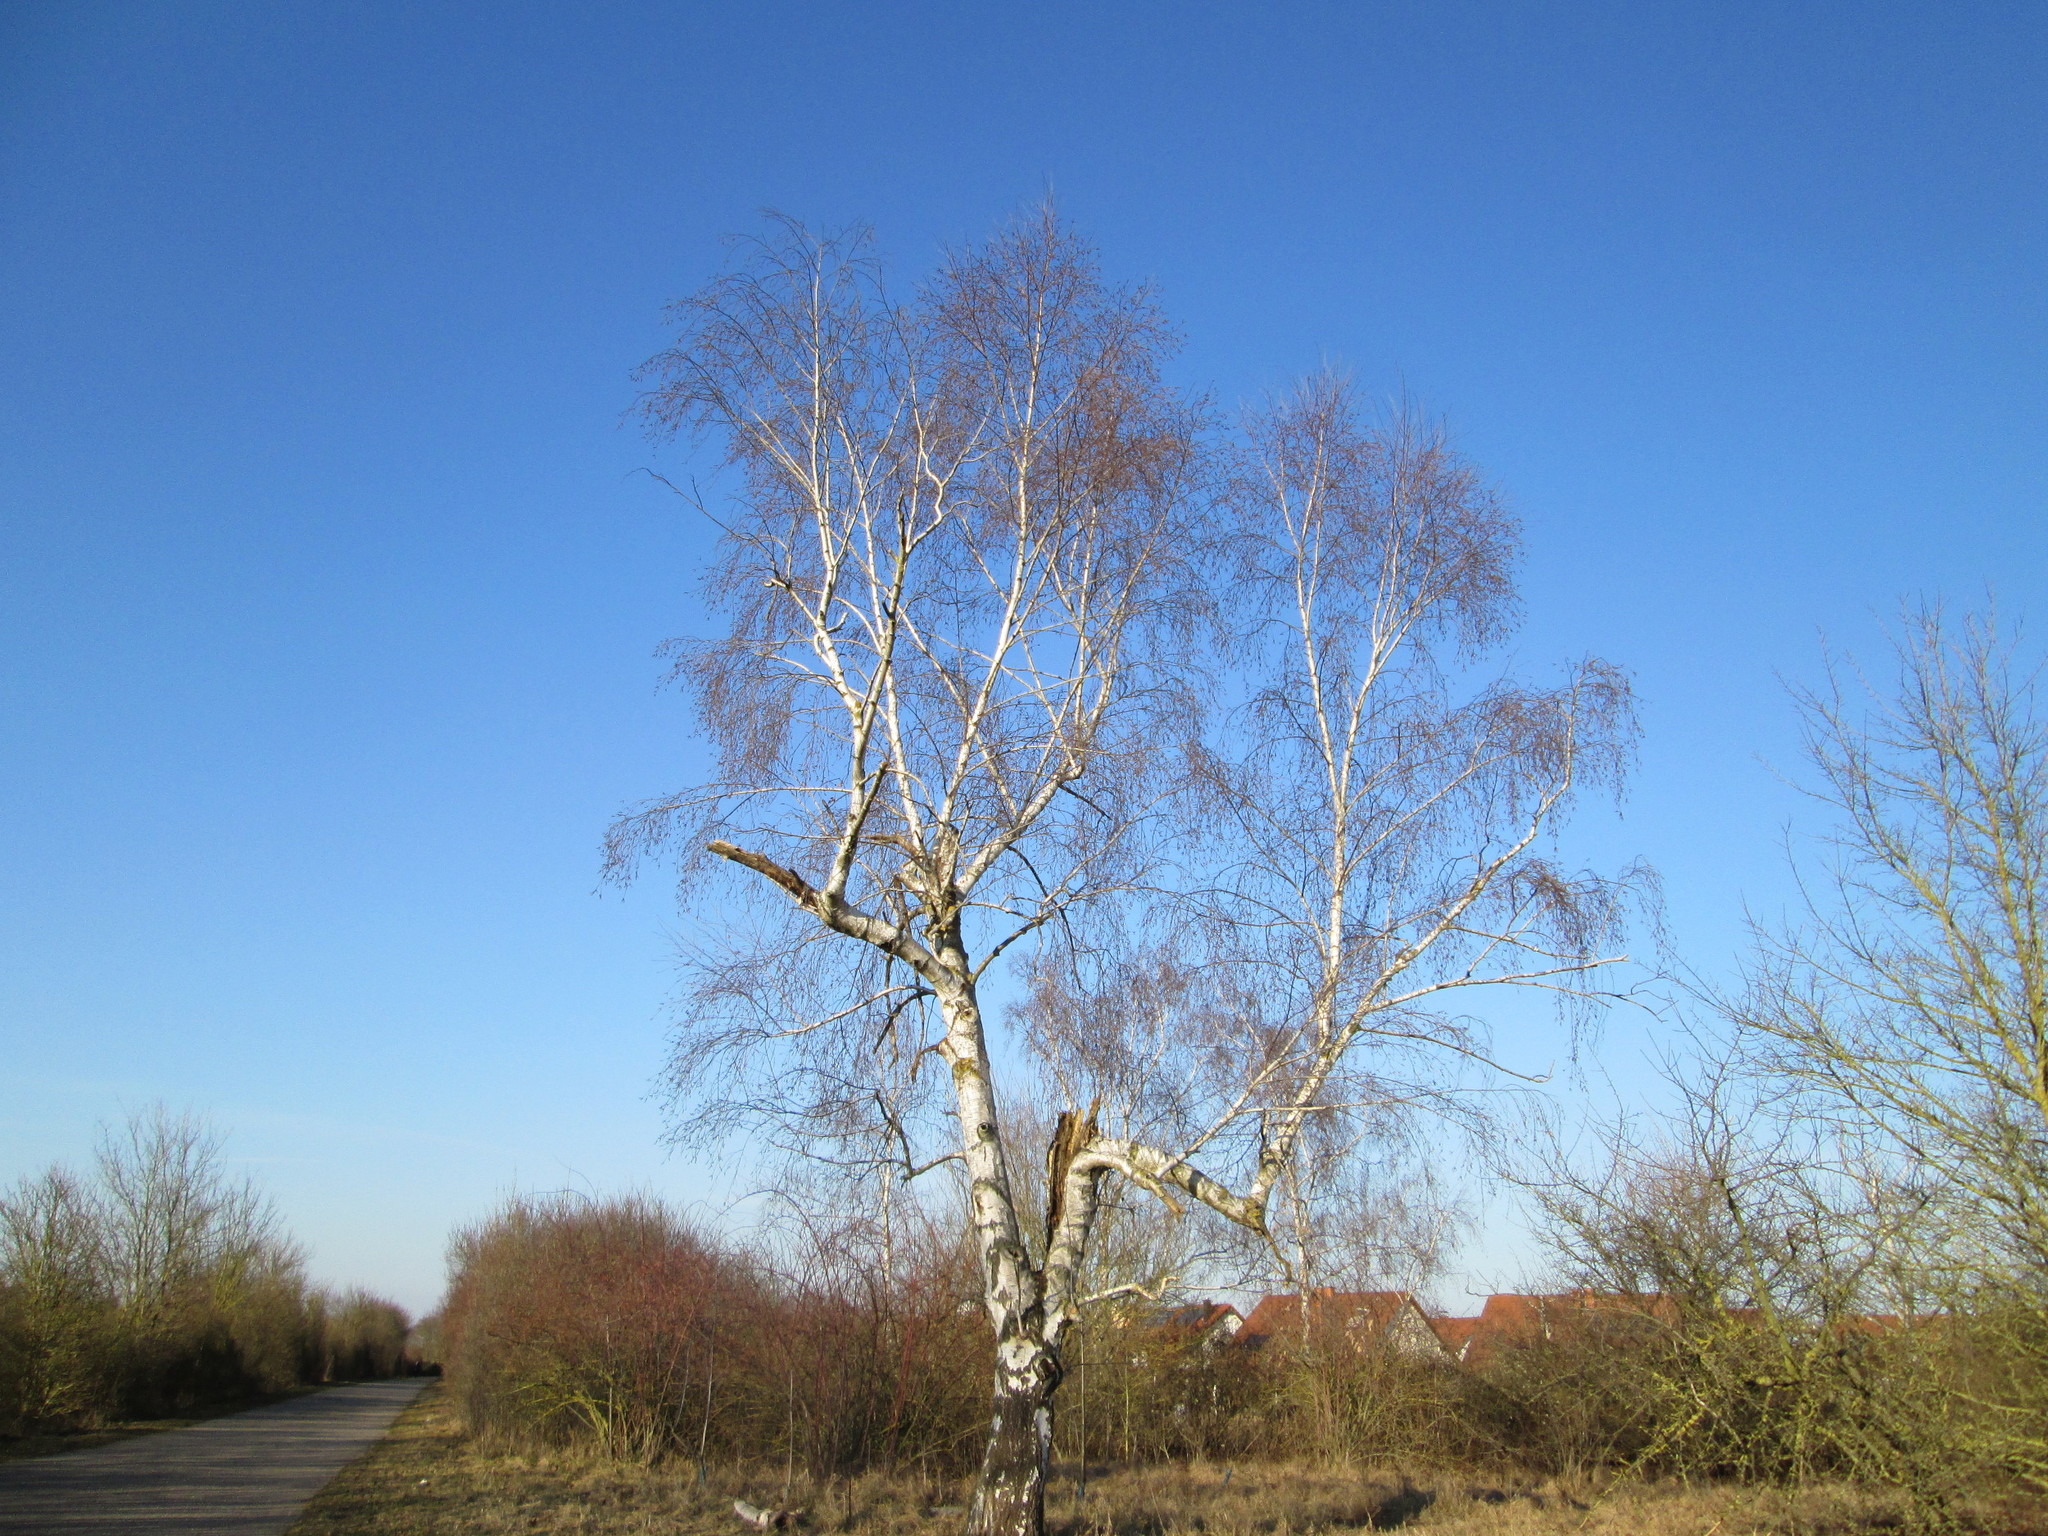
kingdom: Plantae
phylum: Tracheophyta
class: Magnoliopsida
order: Fagales
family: Betulaceae
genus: Betula
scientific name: Betula pendula
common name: Silver birch
